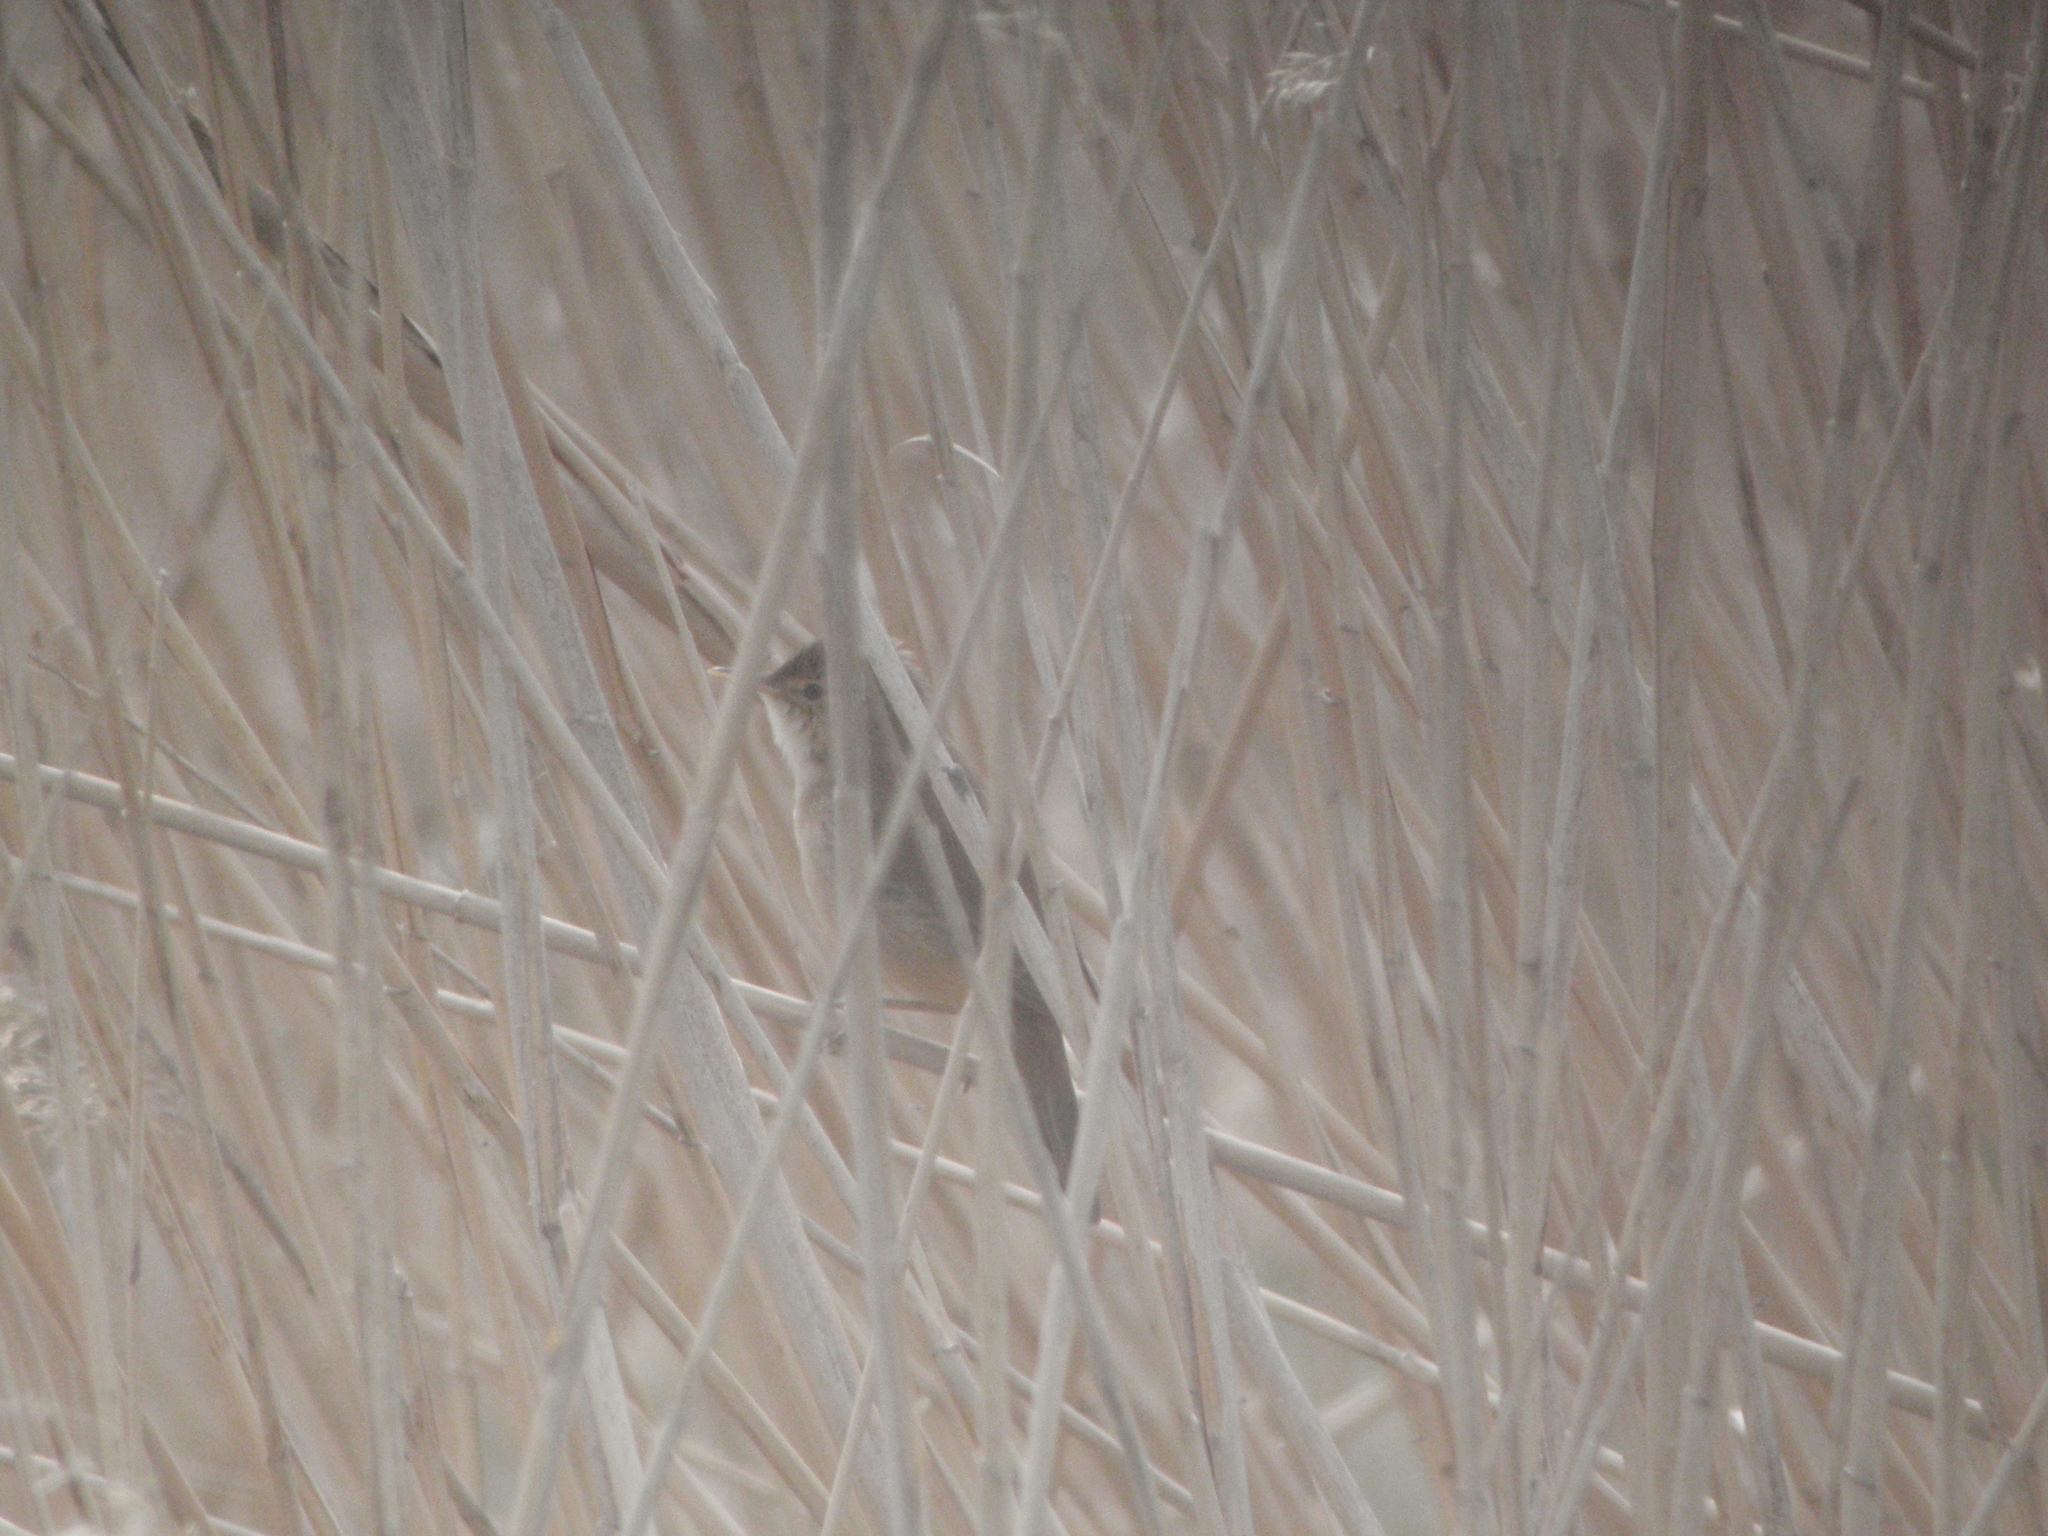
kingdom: Animalia
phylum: Chordata
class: Aves
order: Passeriformes
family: Acrocephalidae
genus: Acrocephalus
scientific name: Acrocephalus scirpaceus
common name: Eurasian reed warbler
